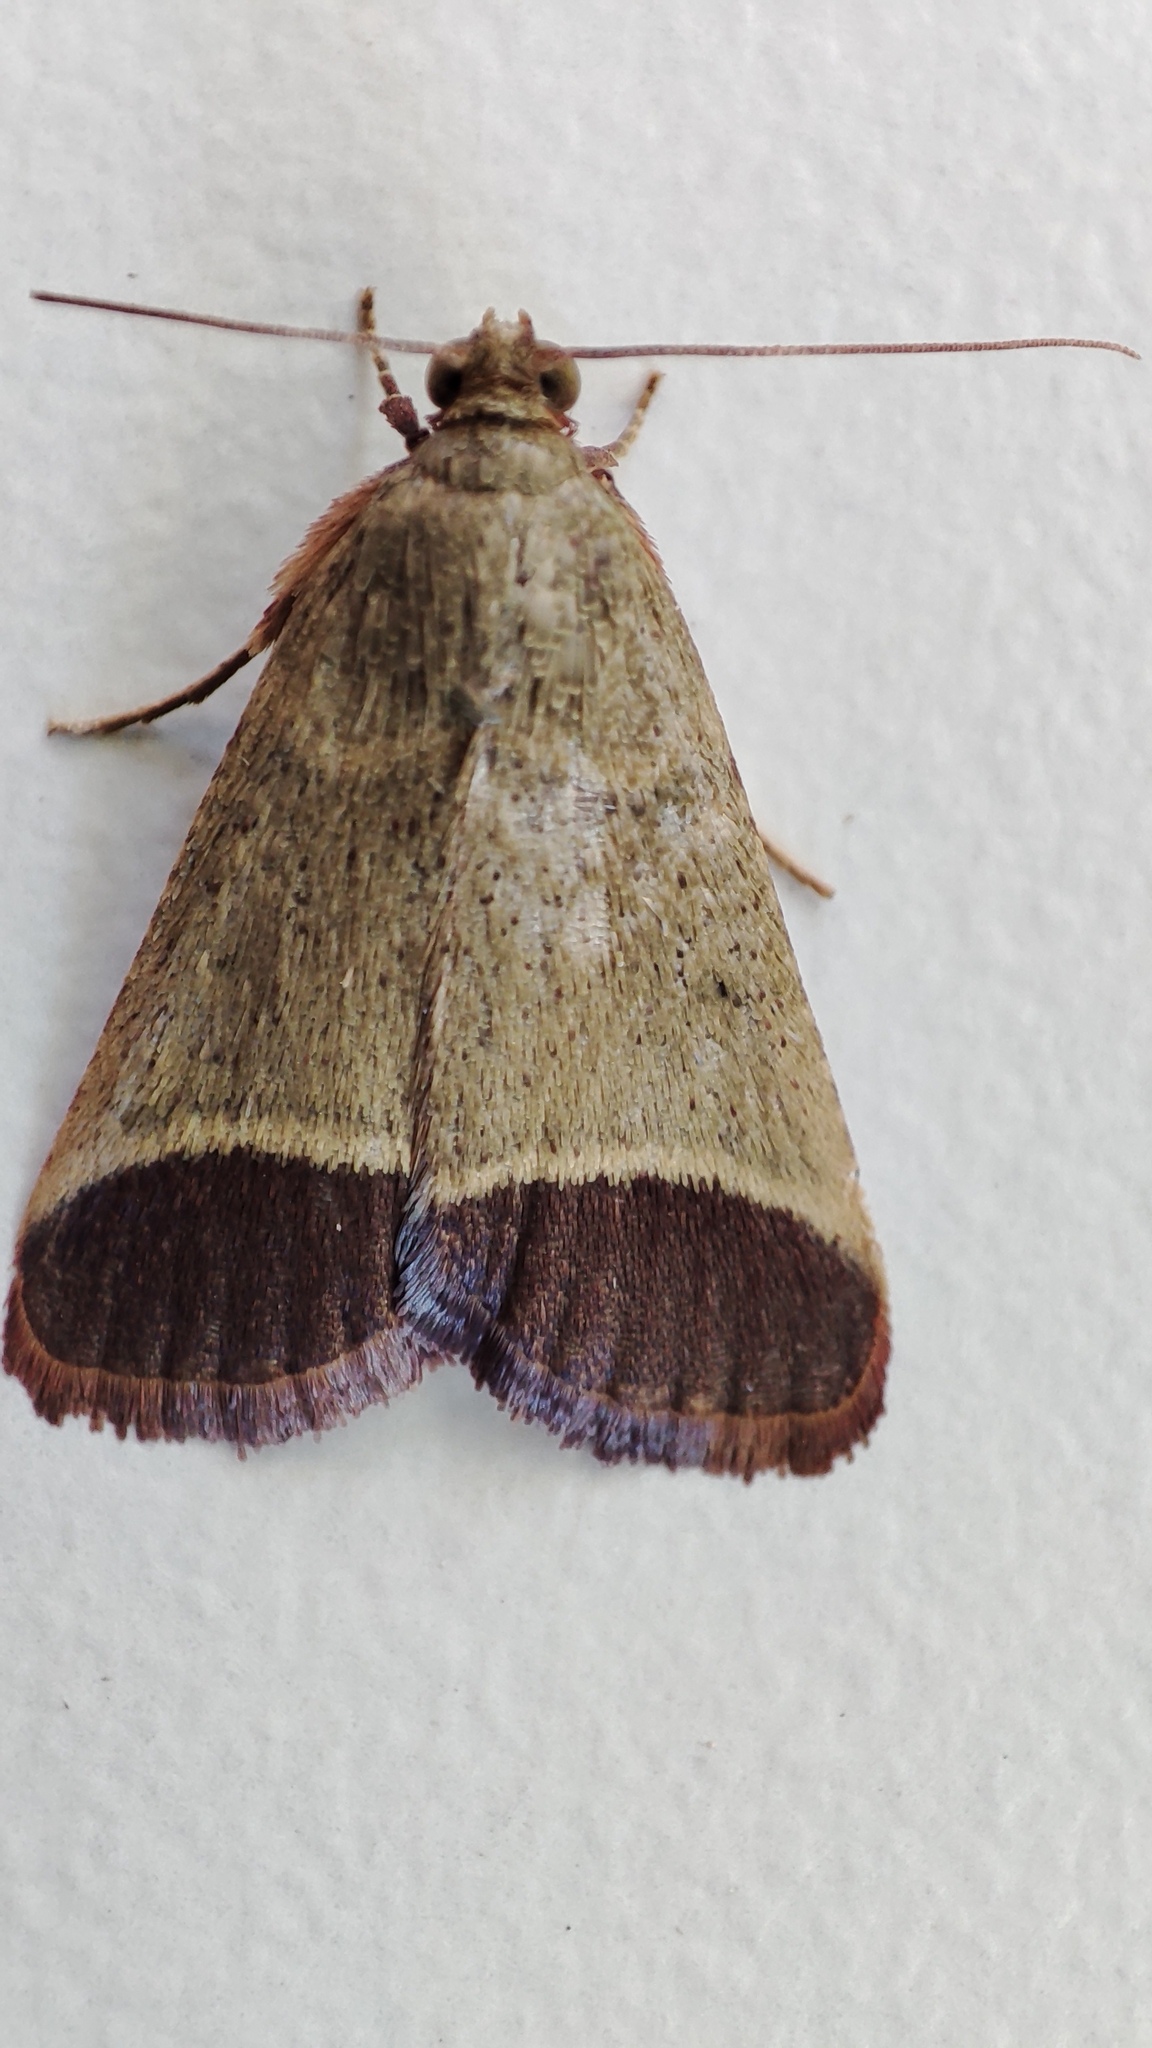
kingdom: Animalia
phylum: Arthropoda
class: Insecta
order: Lepidoptera
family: Pyralidae
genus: Tegulifera
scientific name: Tegulifera obovalis
